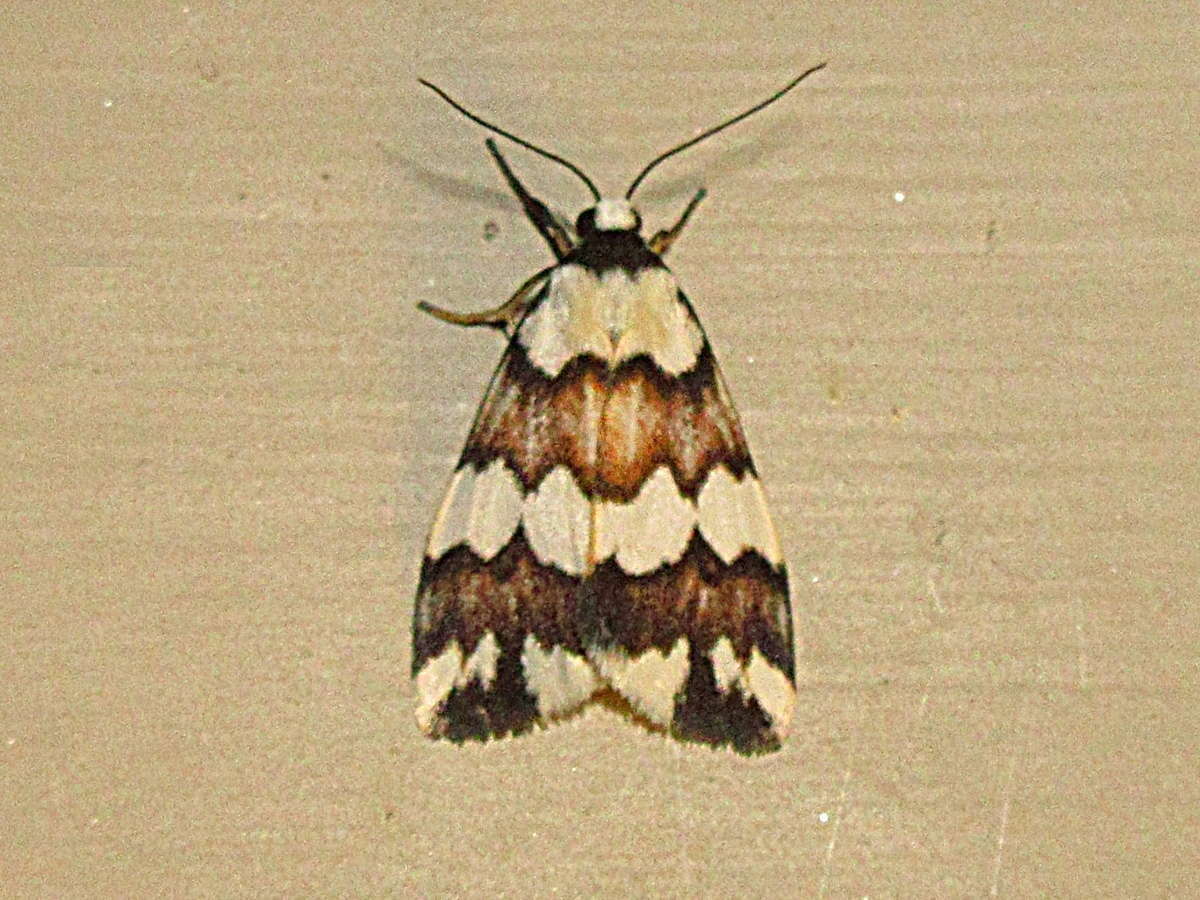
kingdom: Animalia
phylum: Arthropoda
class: Insecta
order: Lepidoptera
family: Erebidae
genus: Termessa
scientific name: Termessa gratiosa
